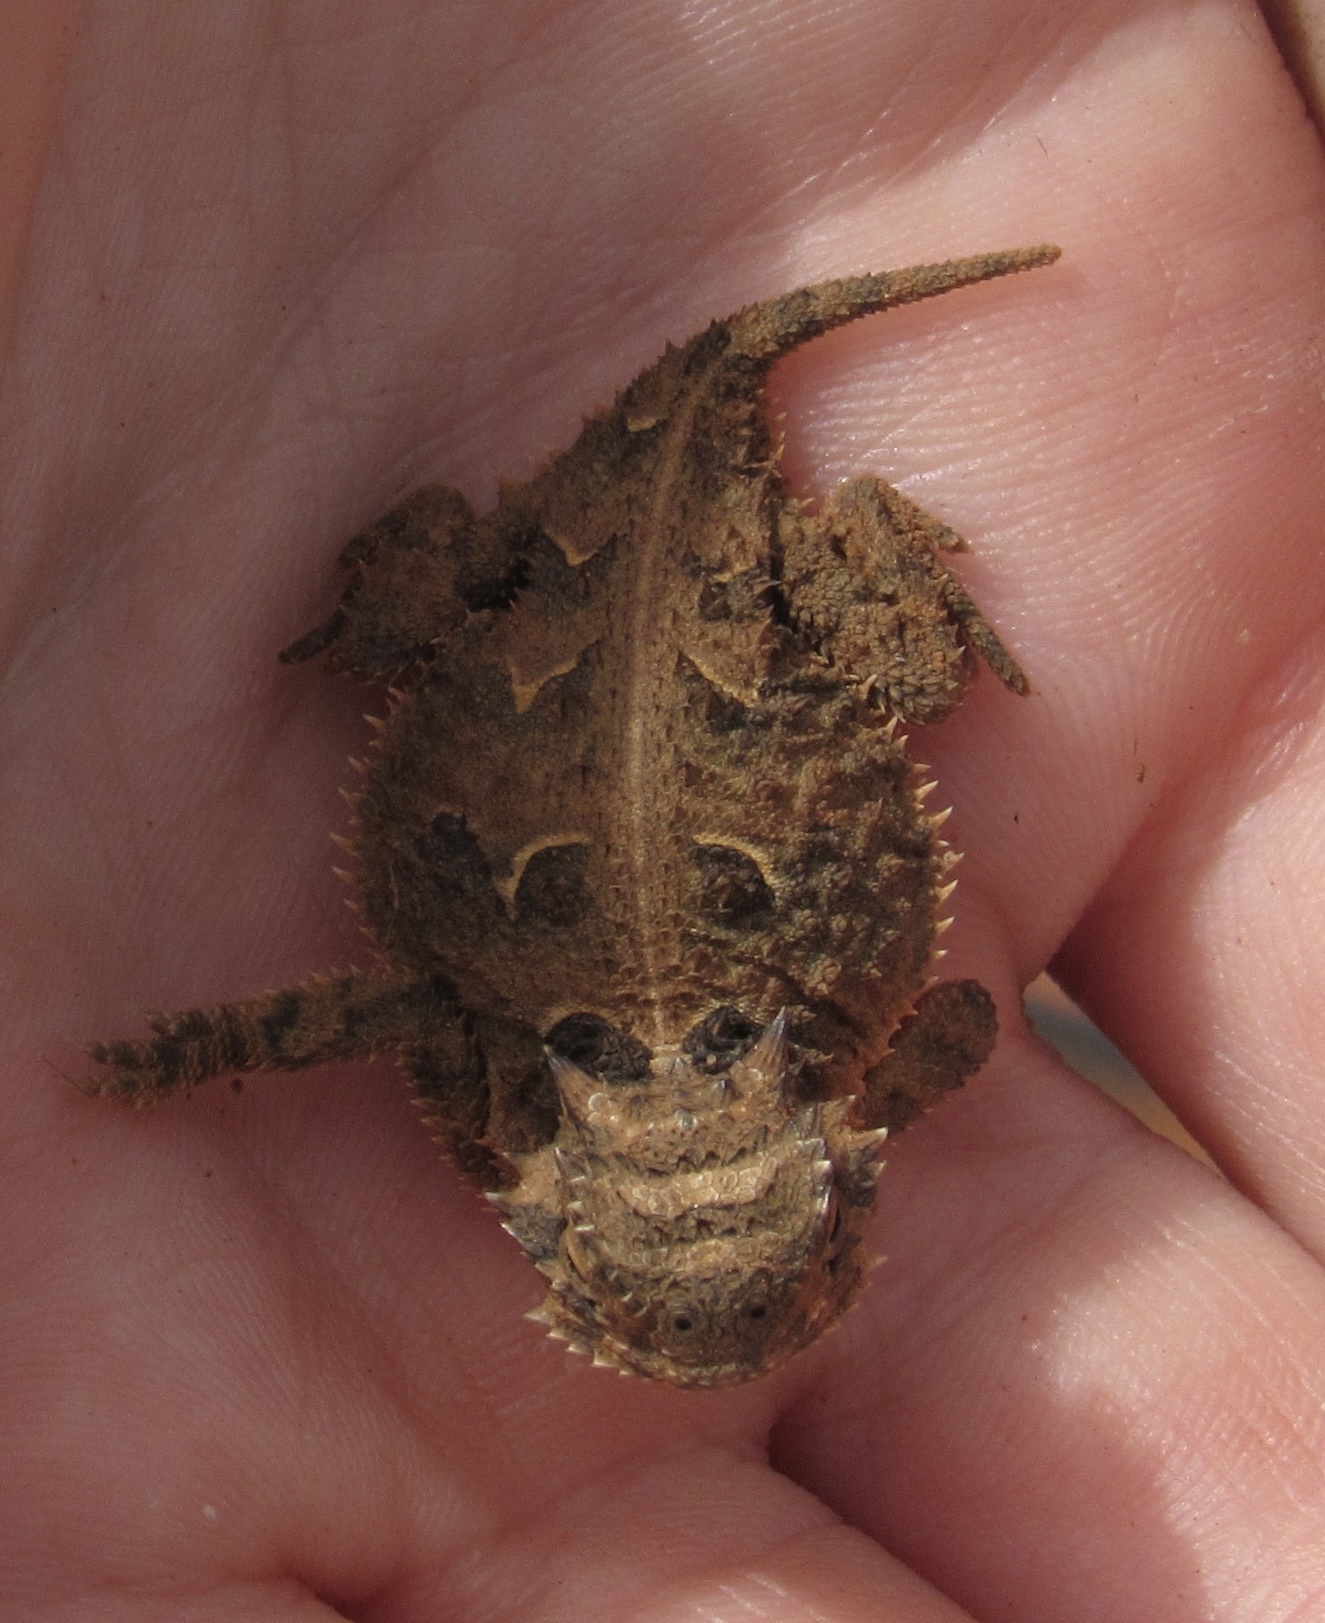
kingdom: Animalia
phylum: Chordata
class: Squamata
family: Phrynosomatidae
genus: Phrynosoma
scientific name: Phrynosoma cornutum
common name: Texas horned lizard
